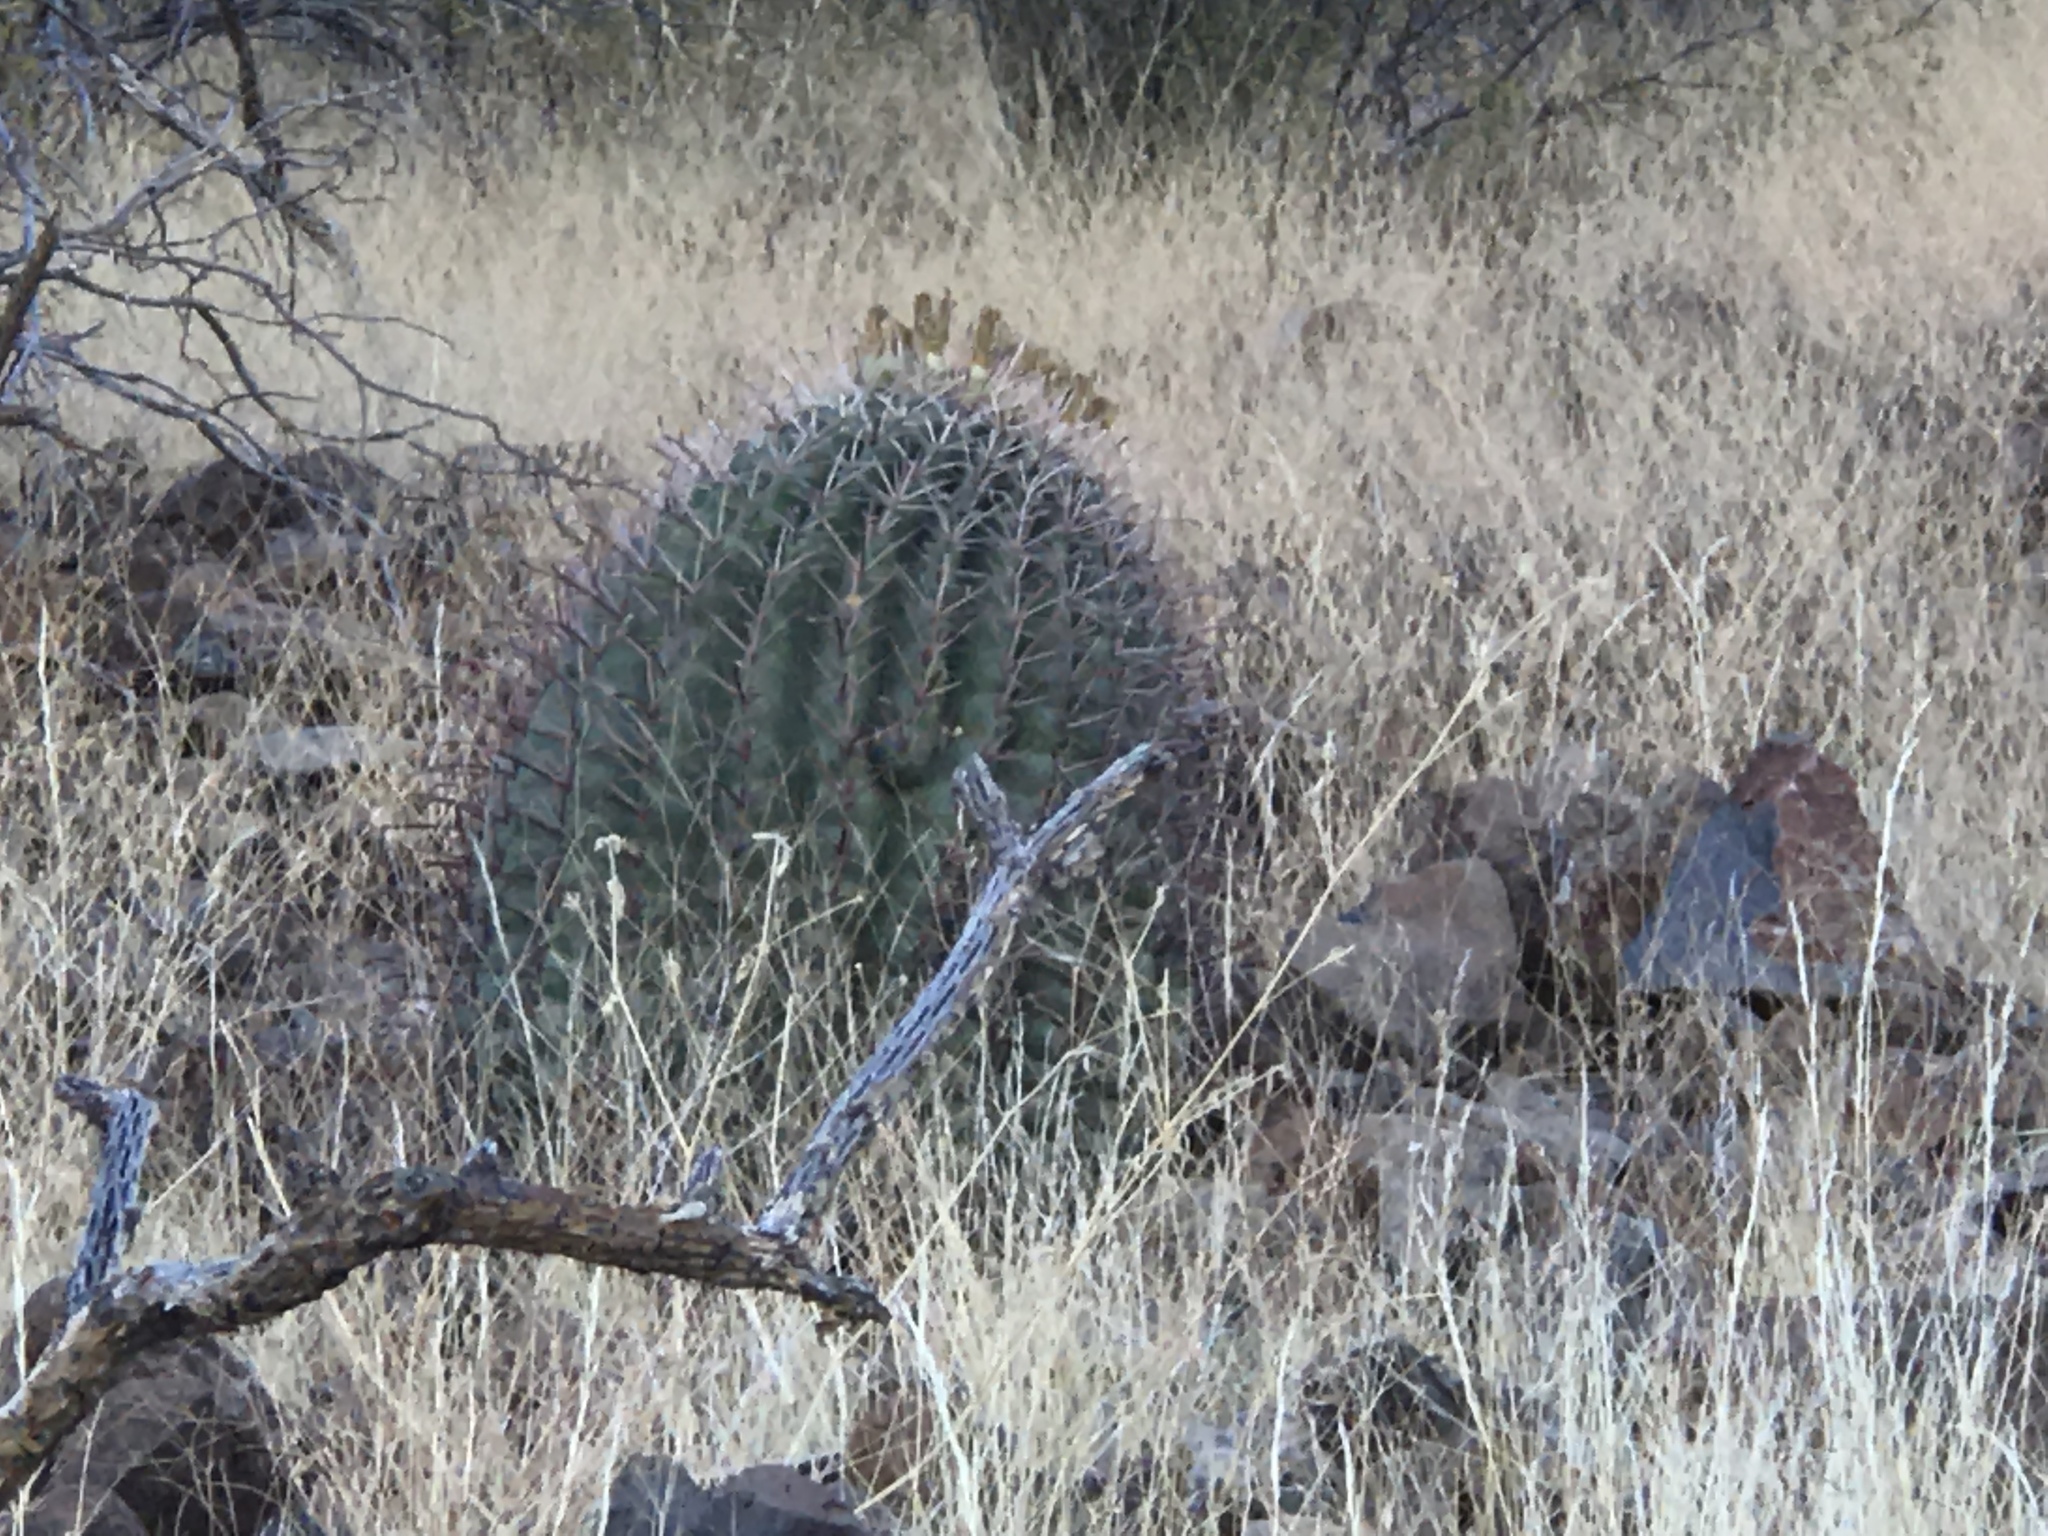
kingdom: Plantae
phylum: Tracheophyta
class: Magnoliopsida
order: Caryophyllales
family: Cactaceae
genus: Ferocactus
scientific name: Ferocactus wislizeni
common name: Candy barrel cactus
